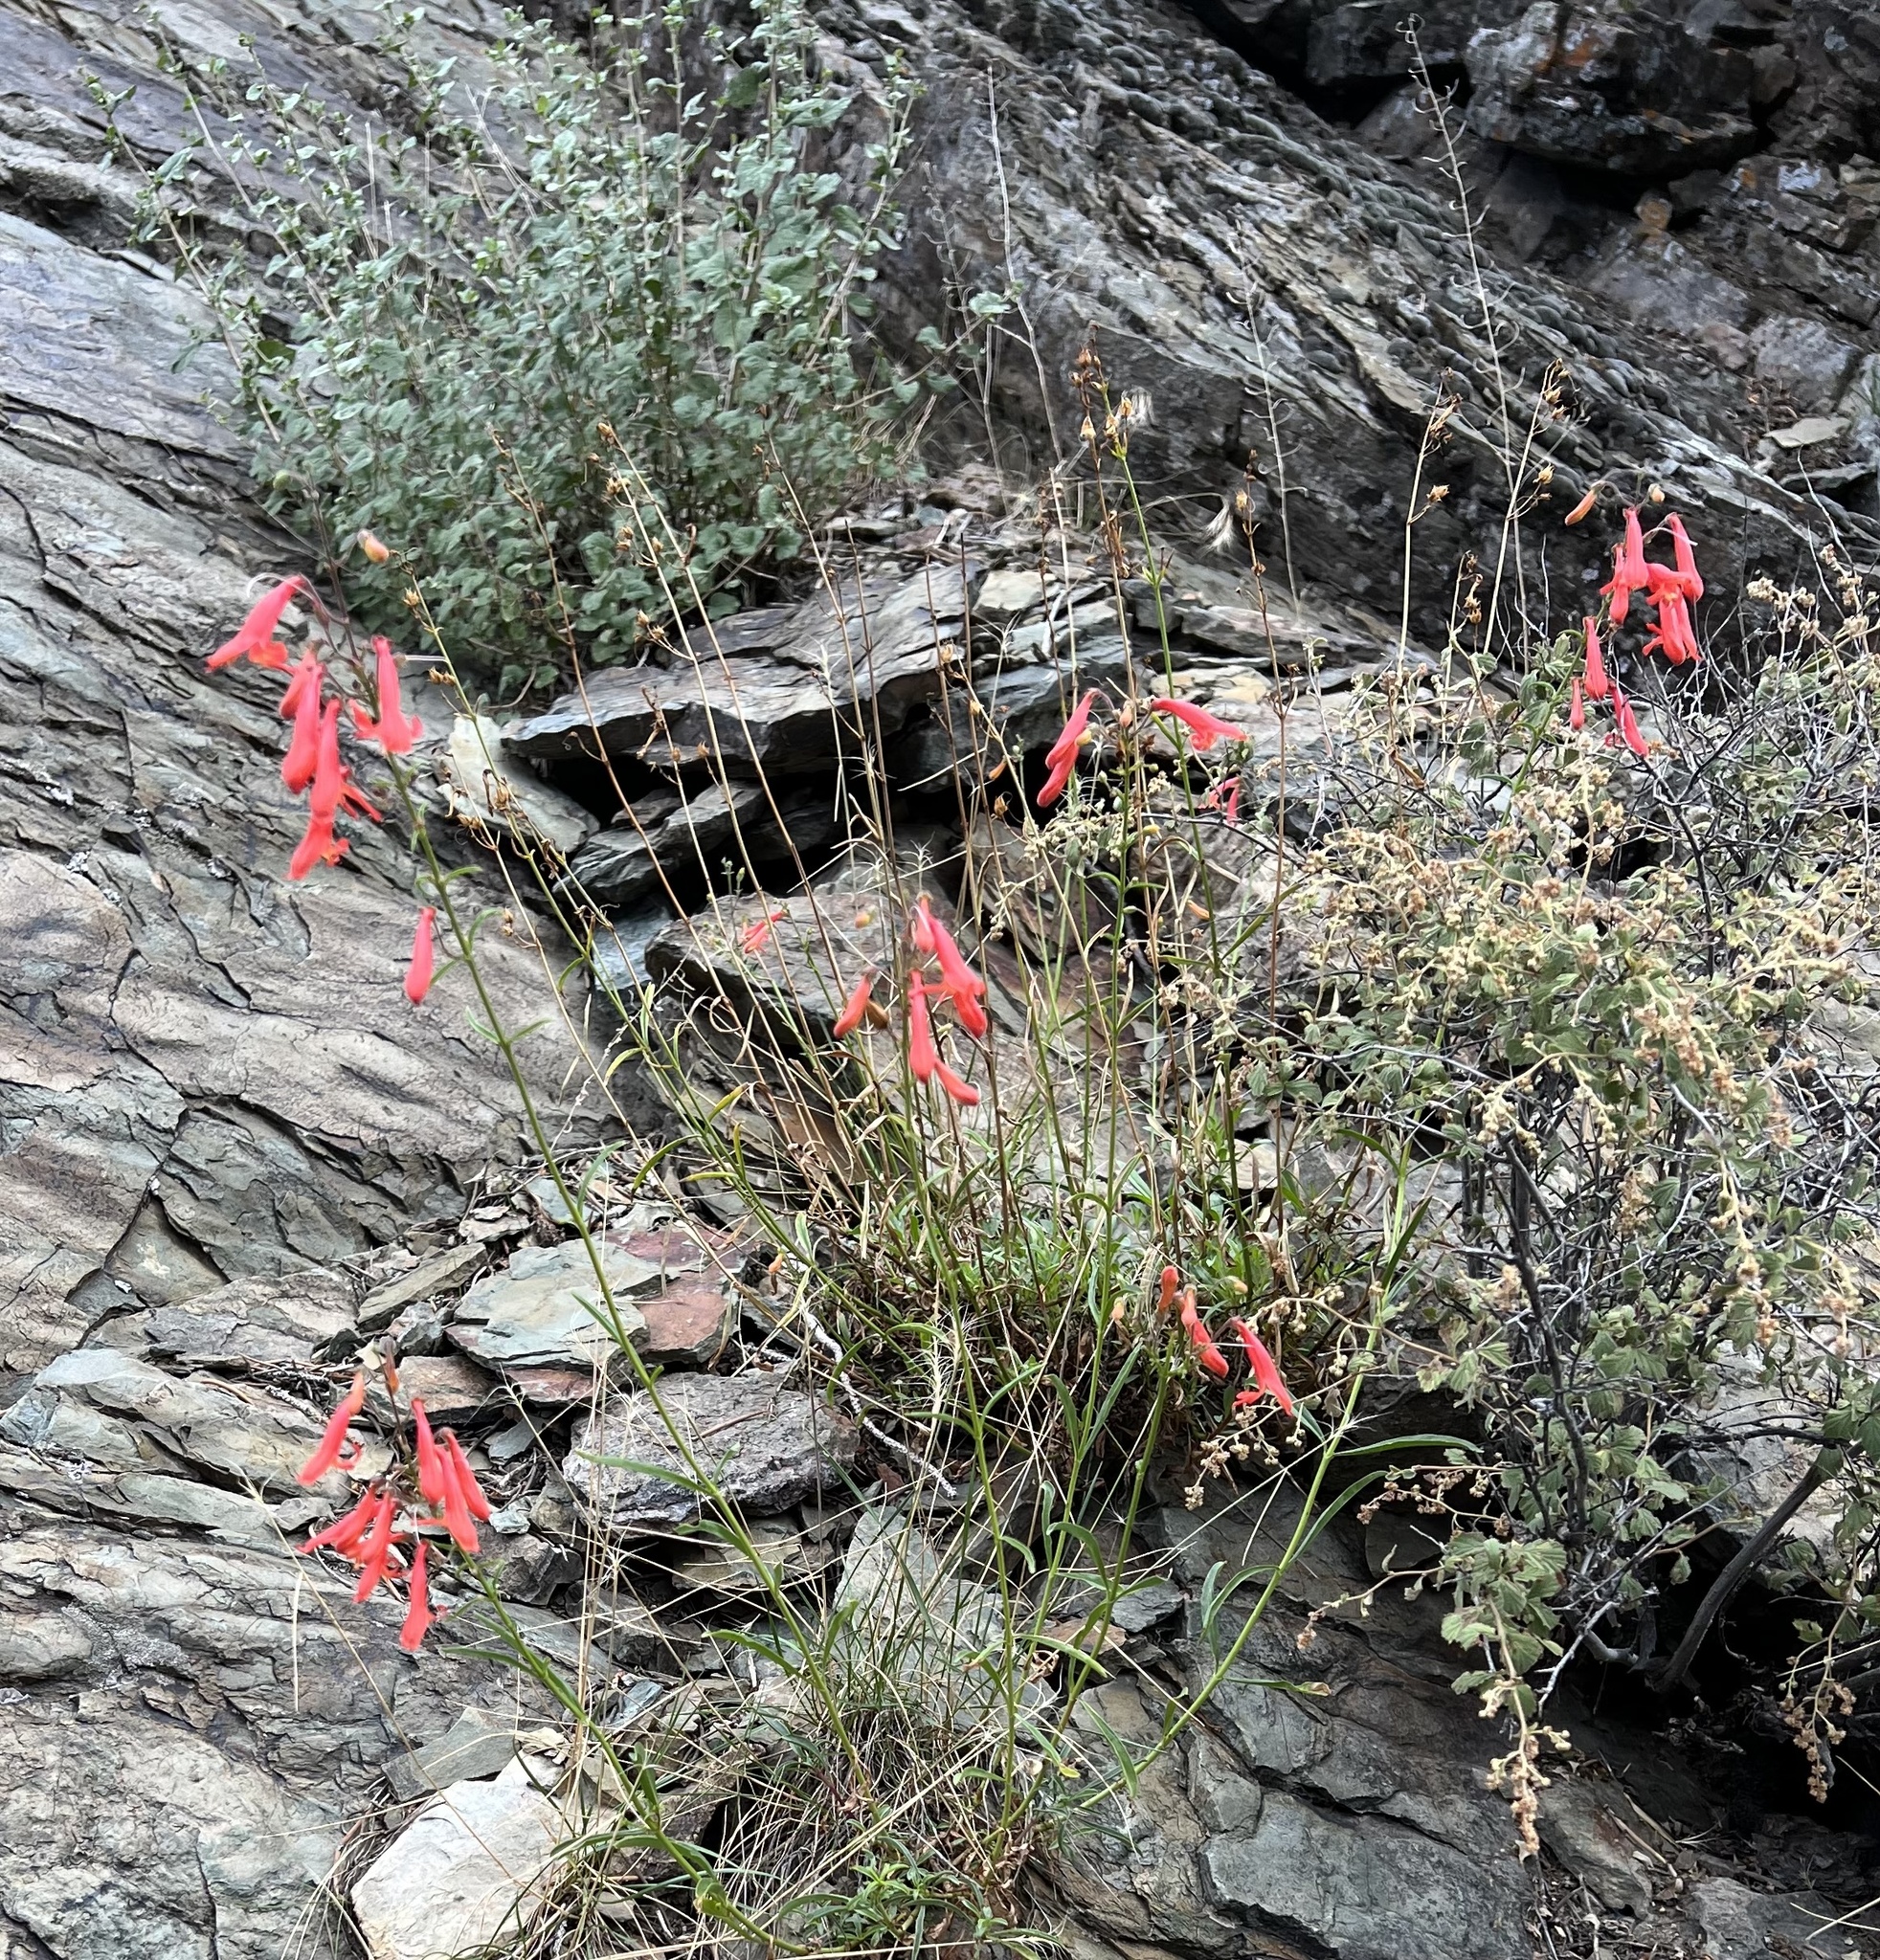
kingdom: Plantae
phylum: Tracheophyta
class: Magnoliopsida
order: Lamiales
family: Plantaginaceae
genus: Penstemon
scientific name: Penstemon rostriflorus
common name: Bridges's penstemon
